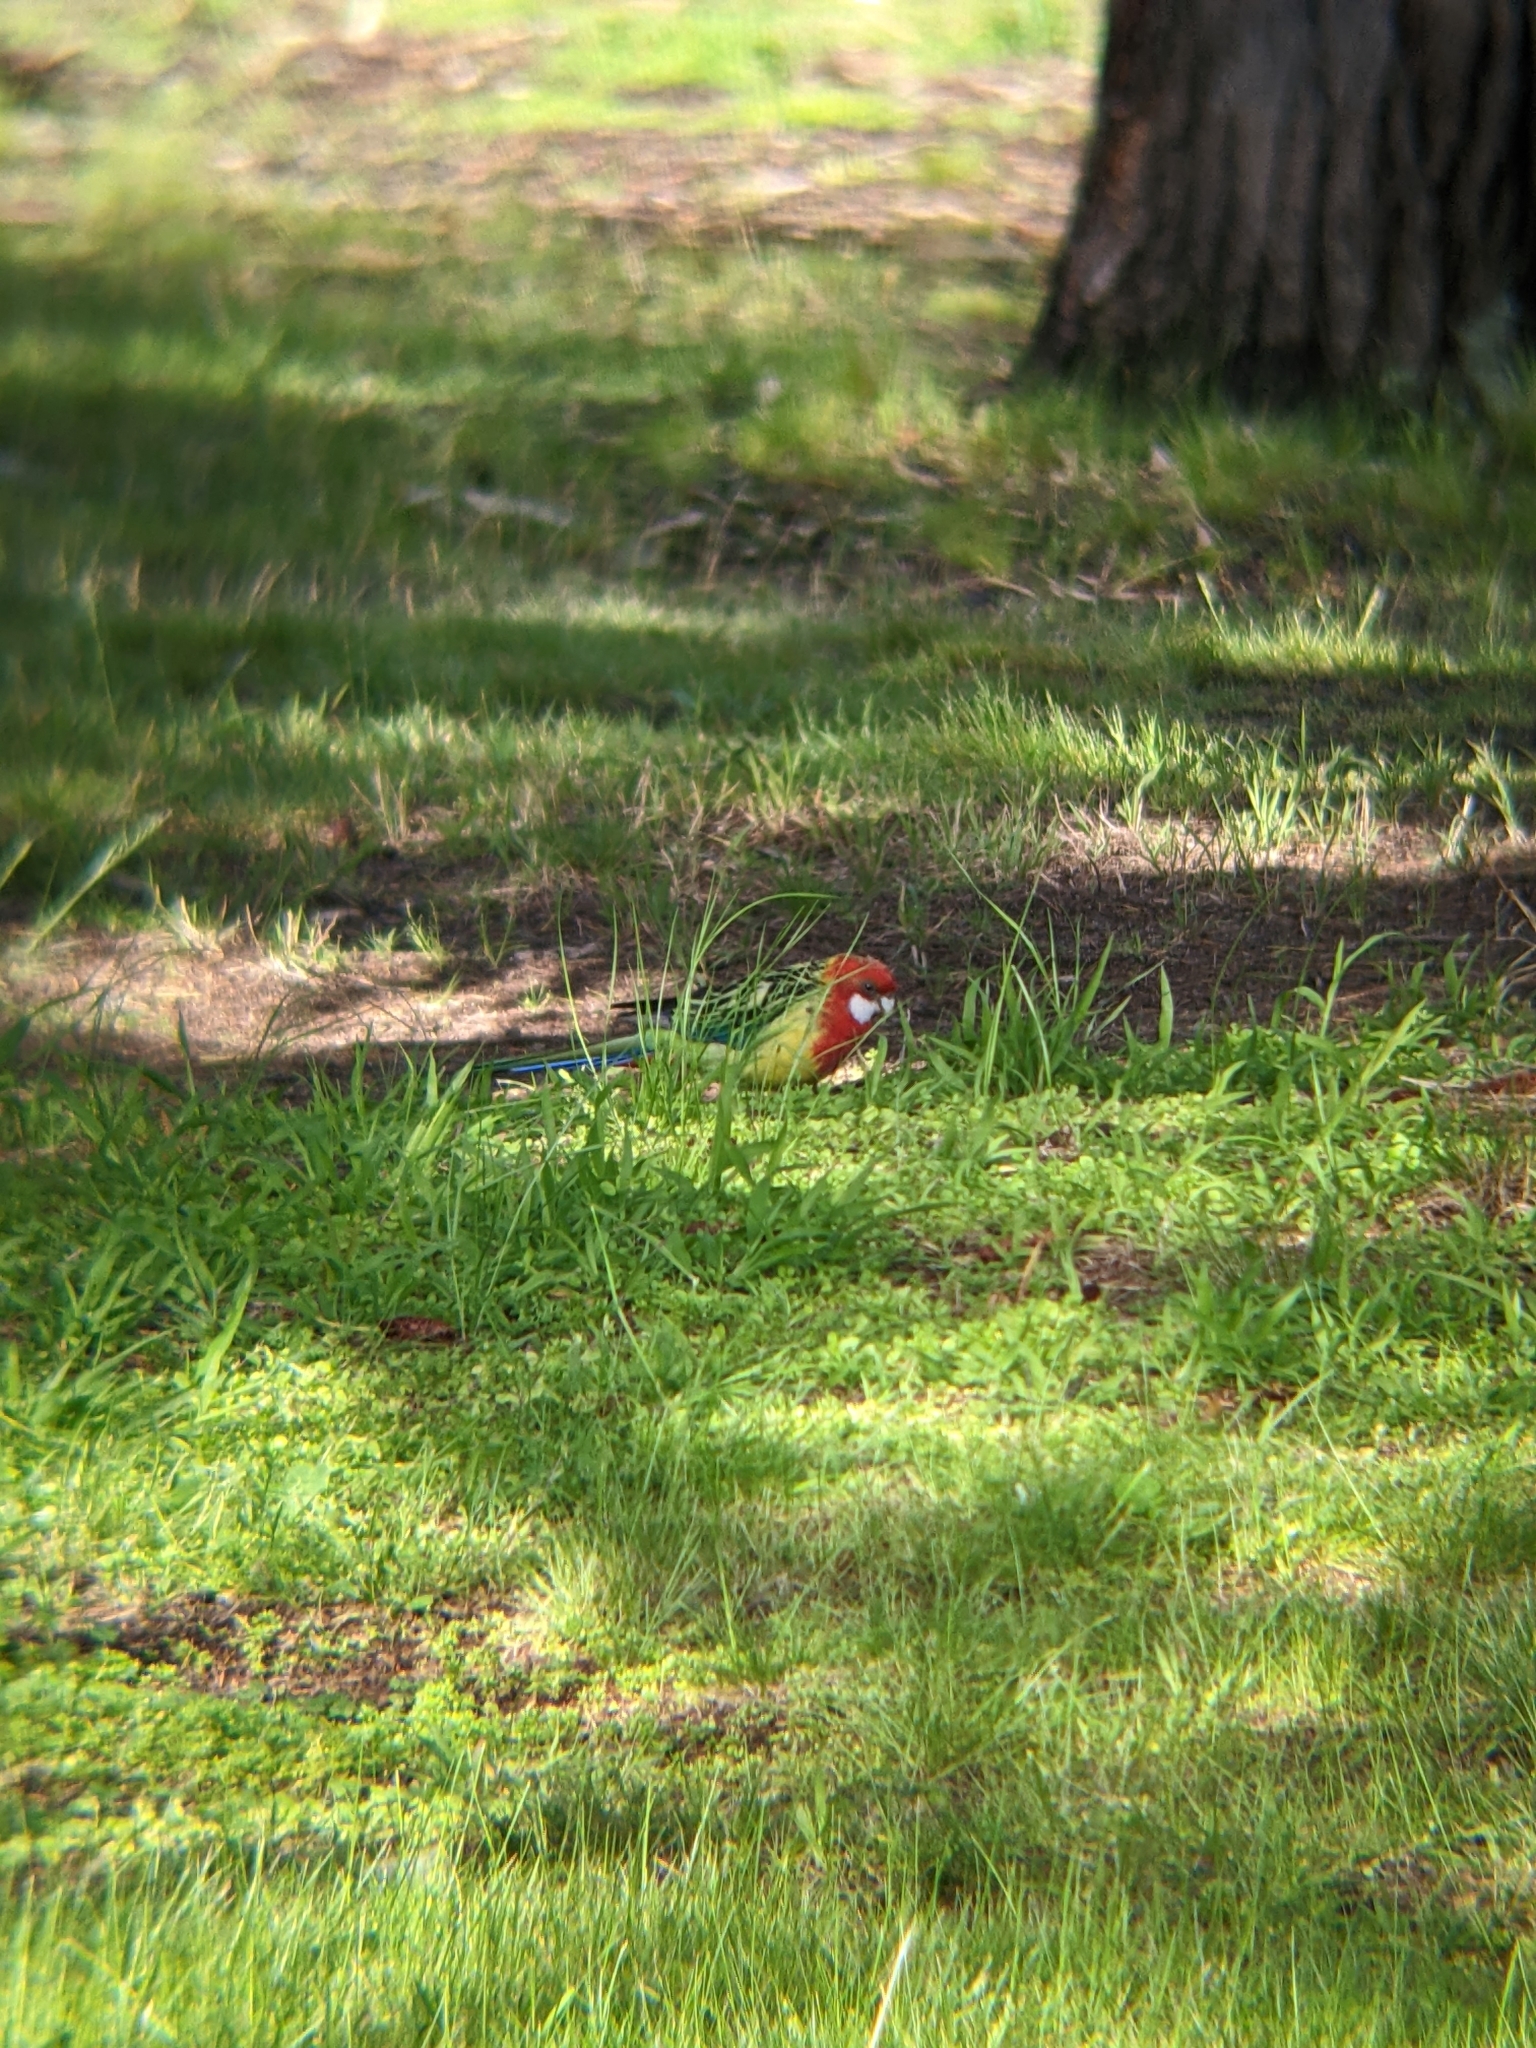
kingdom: Animalia
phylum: Chordata
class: Aves
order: Psittaciformes
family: Psittacidae
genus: Platycercus
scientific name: Platycercus eximius
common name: Eastern rosella
